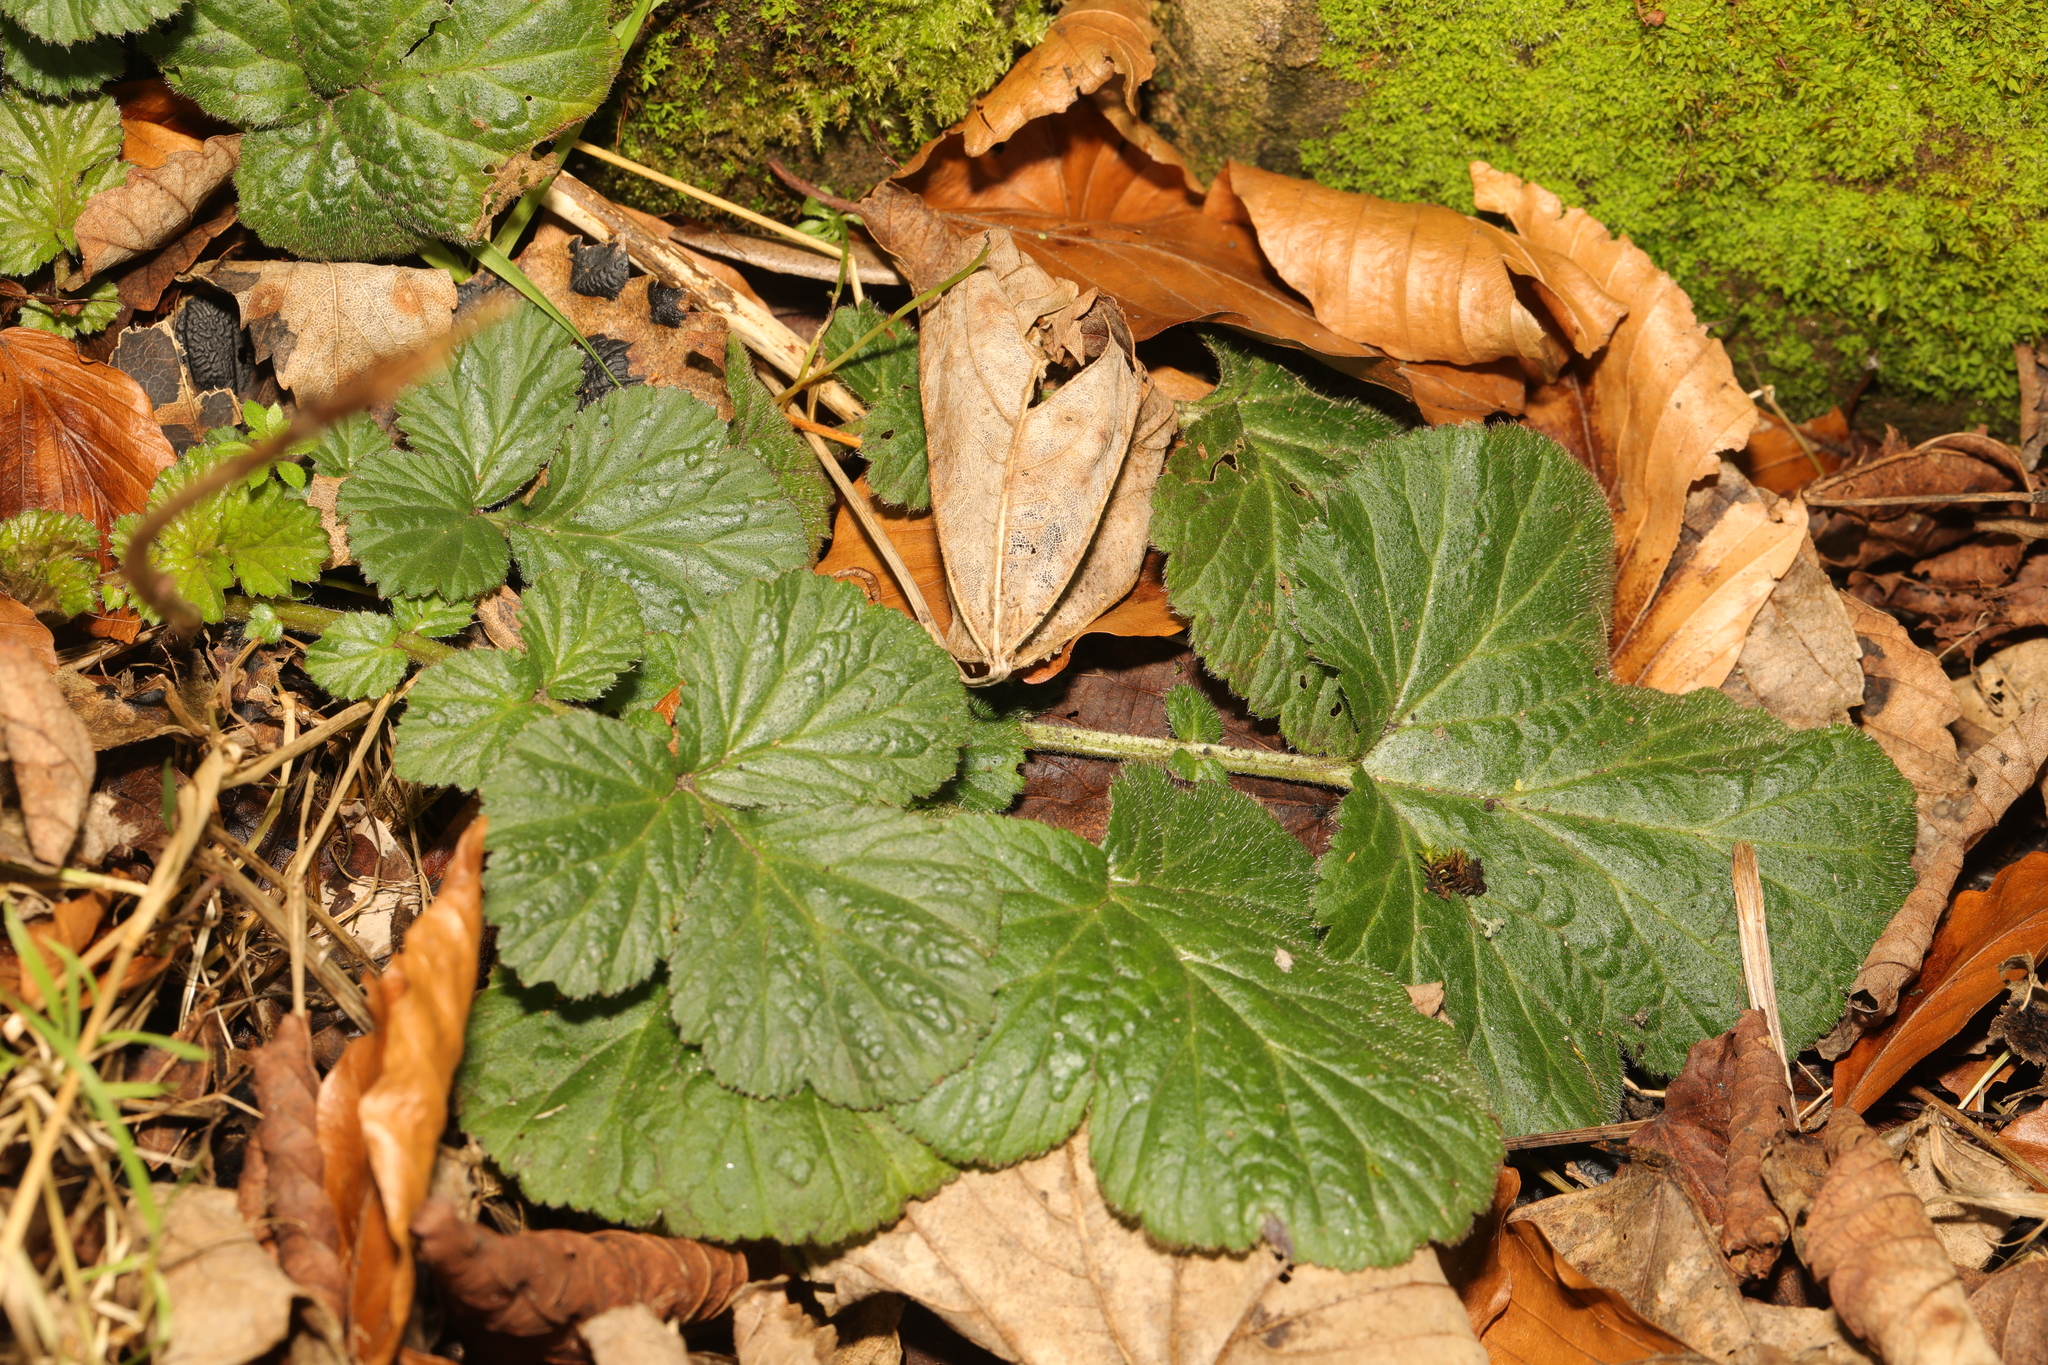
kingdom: Plantae
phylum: Tracheophyta
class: Magnoliopsida
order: Rosales
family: Rosaceae
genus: Geum
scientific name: Geum urbanum
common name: Wood avens
